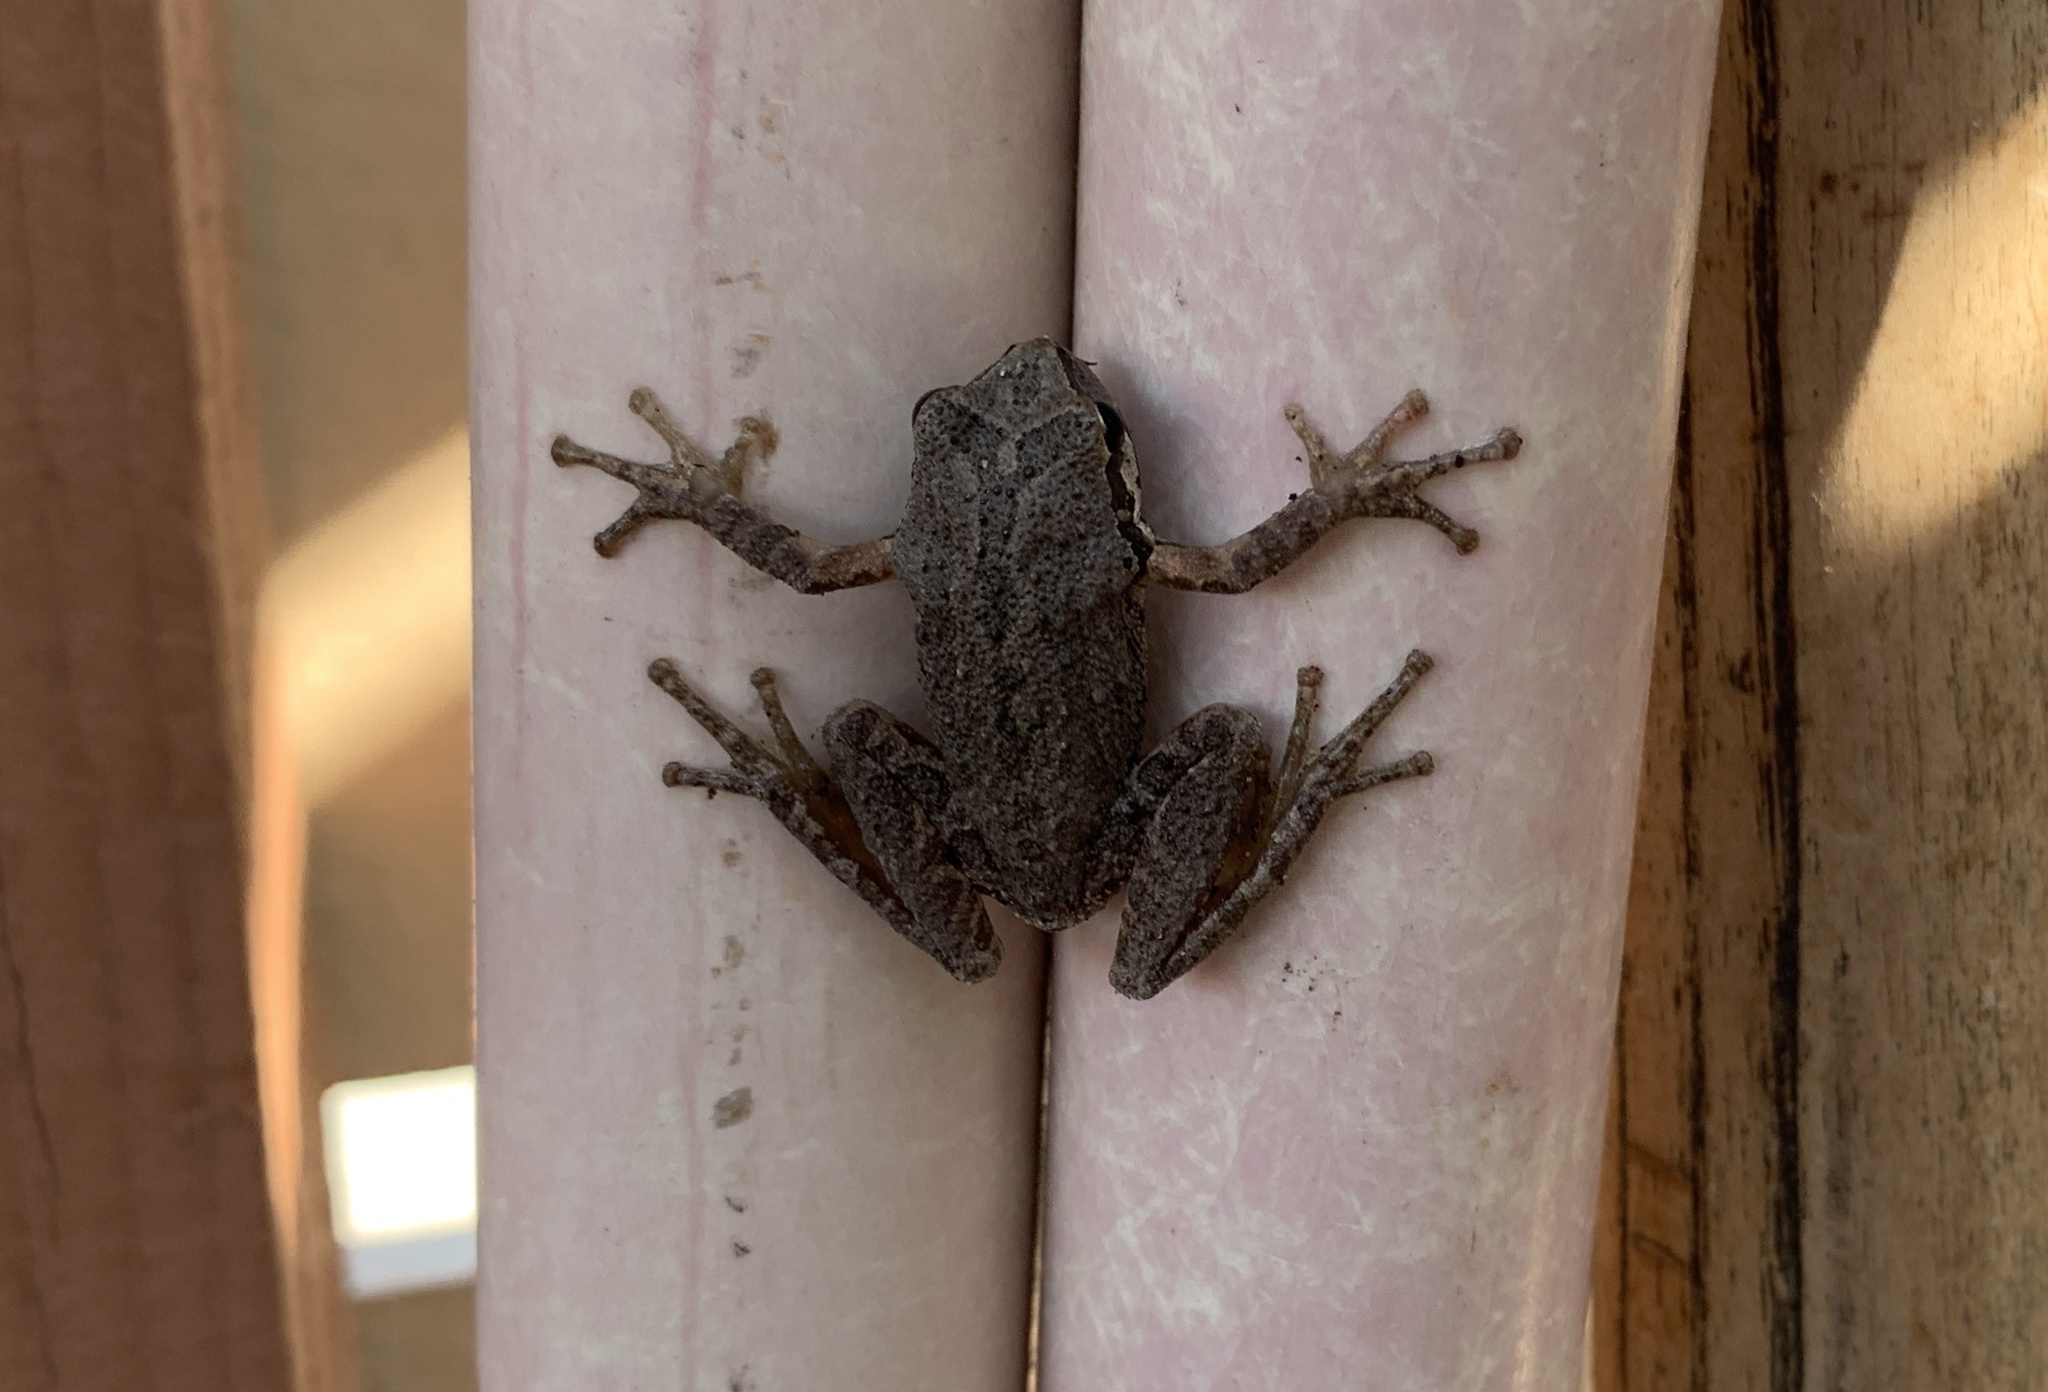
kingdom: Animalia
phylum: Chordata
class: Amphibia
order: Anura
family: Hylidae
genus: Pseudacris
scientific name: Pseudacris regilla
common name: Pacific chorus frog
